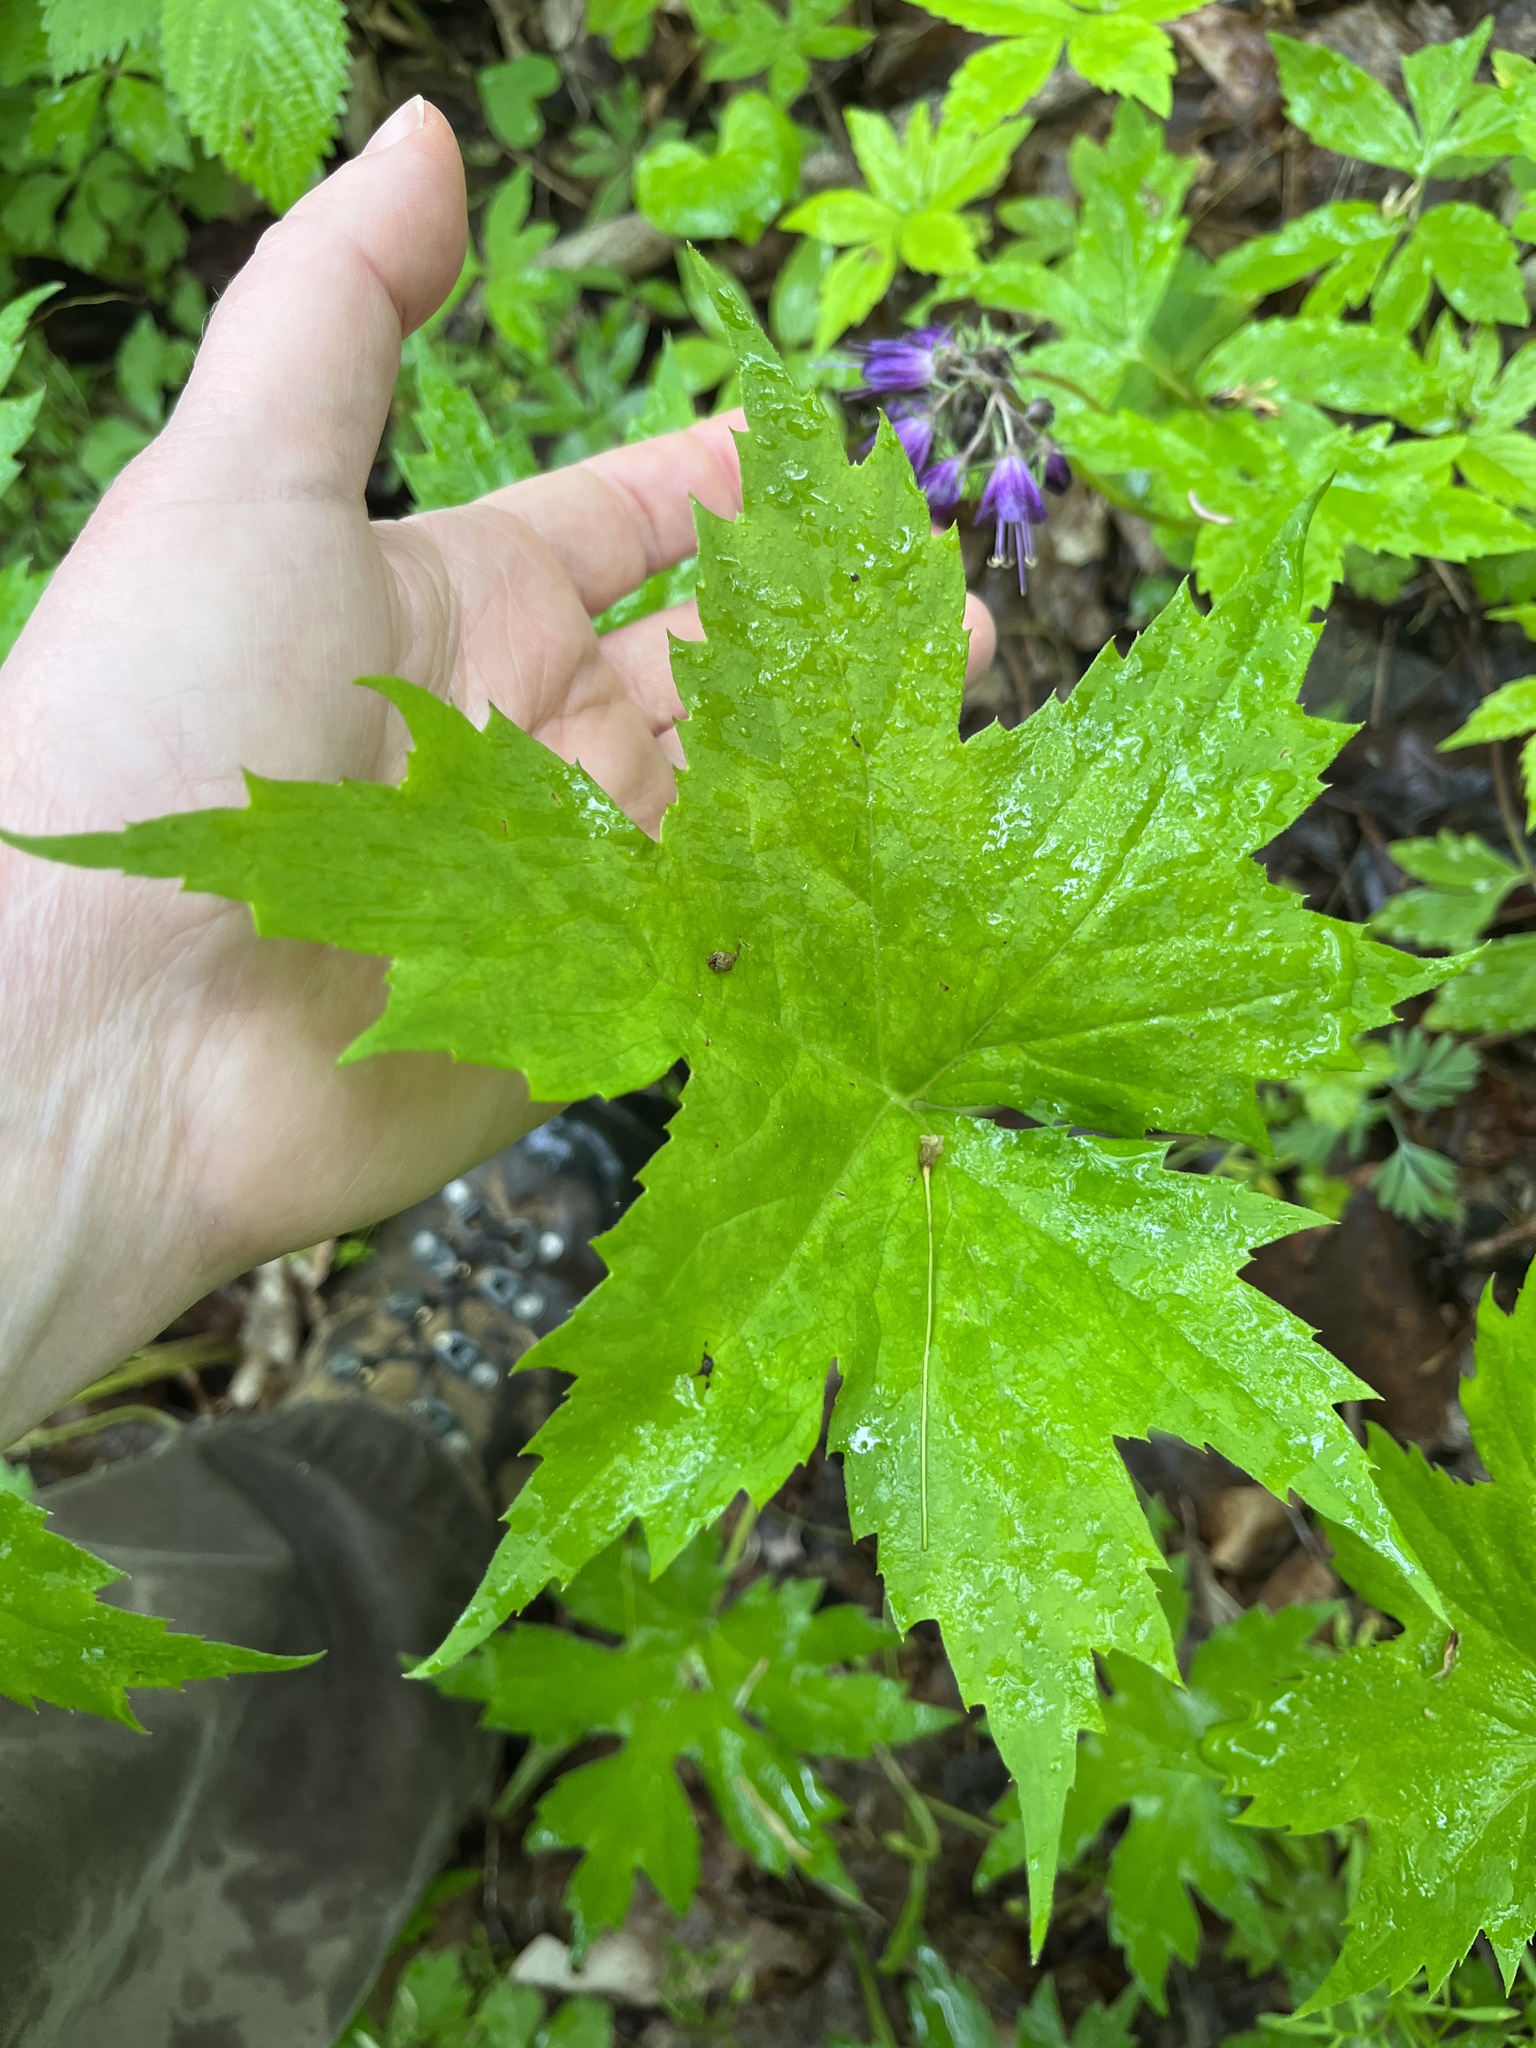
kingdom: Plantae
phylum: Tracheophyta
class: Magnoliopsida
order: Boraginales
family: Hydrophyllaceae
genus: Hydrophyllum
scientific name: Hydrophyllum canadense
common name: Canada waterleaf
